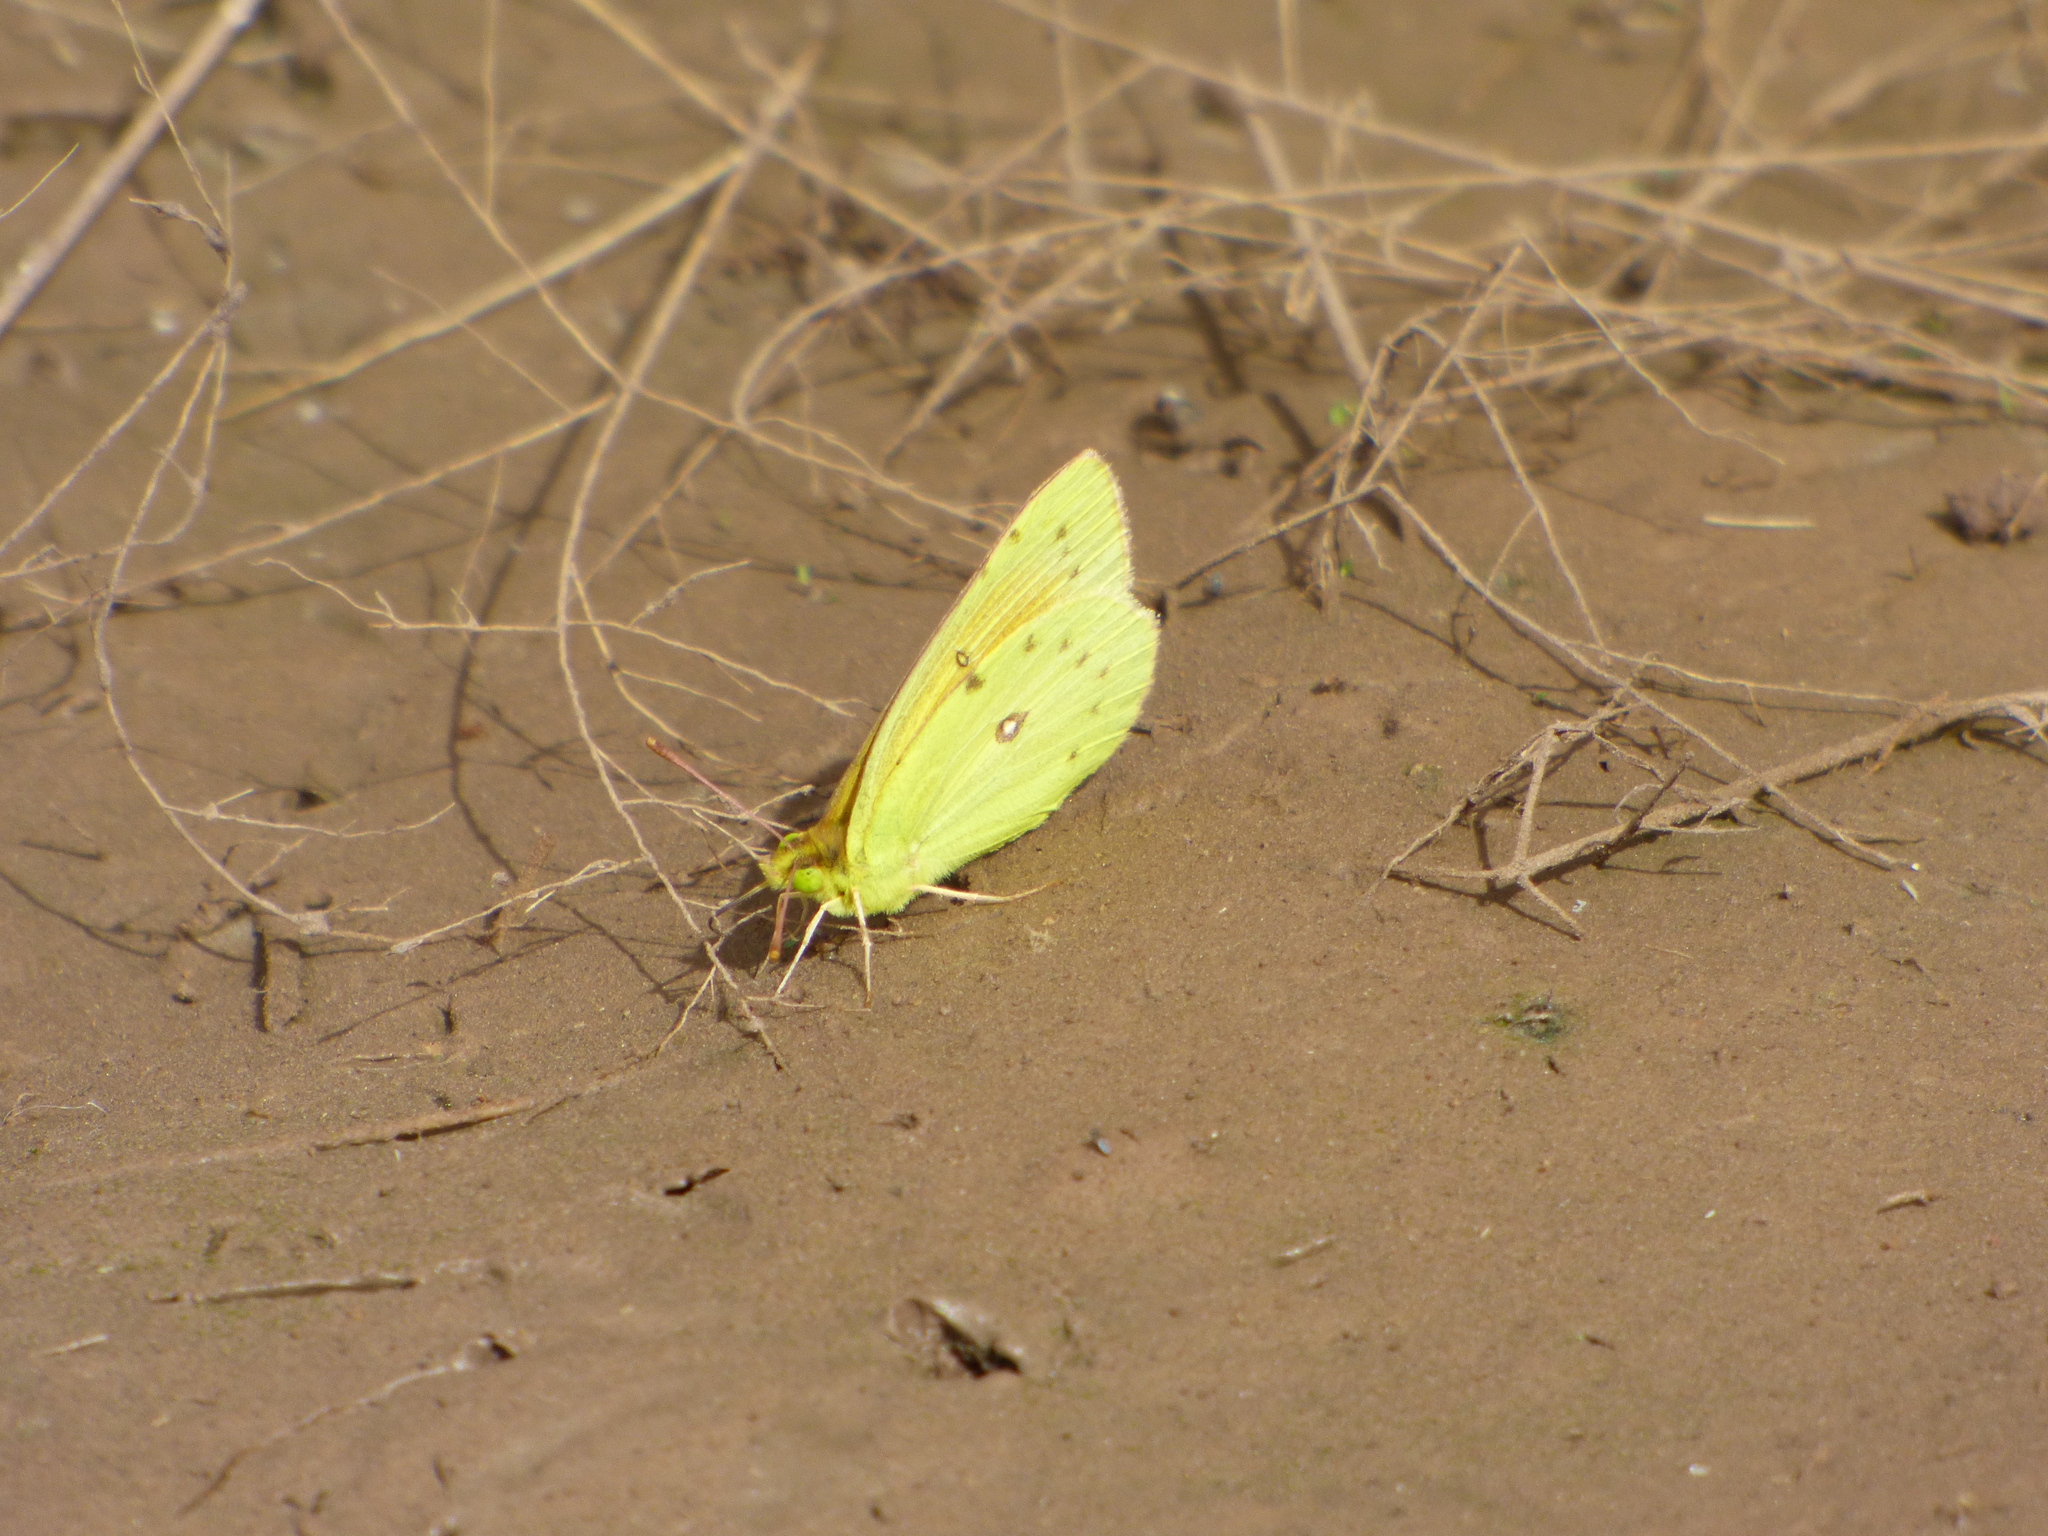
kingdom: Animalia
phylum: Arthropoda
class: Insecta
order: Lepidoptera
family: Pieridae
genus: Colias
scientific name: Colias lesbia
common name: Lesbia clouded yellow
